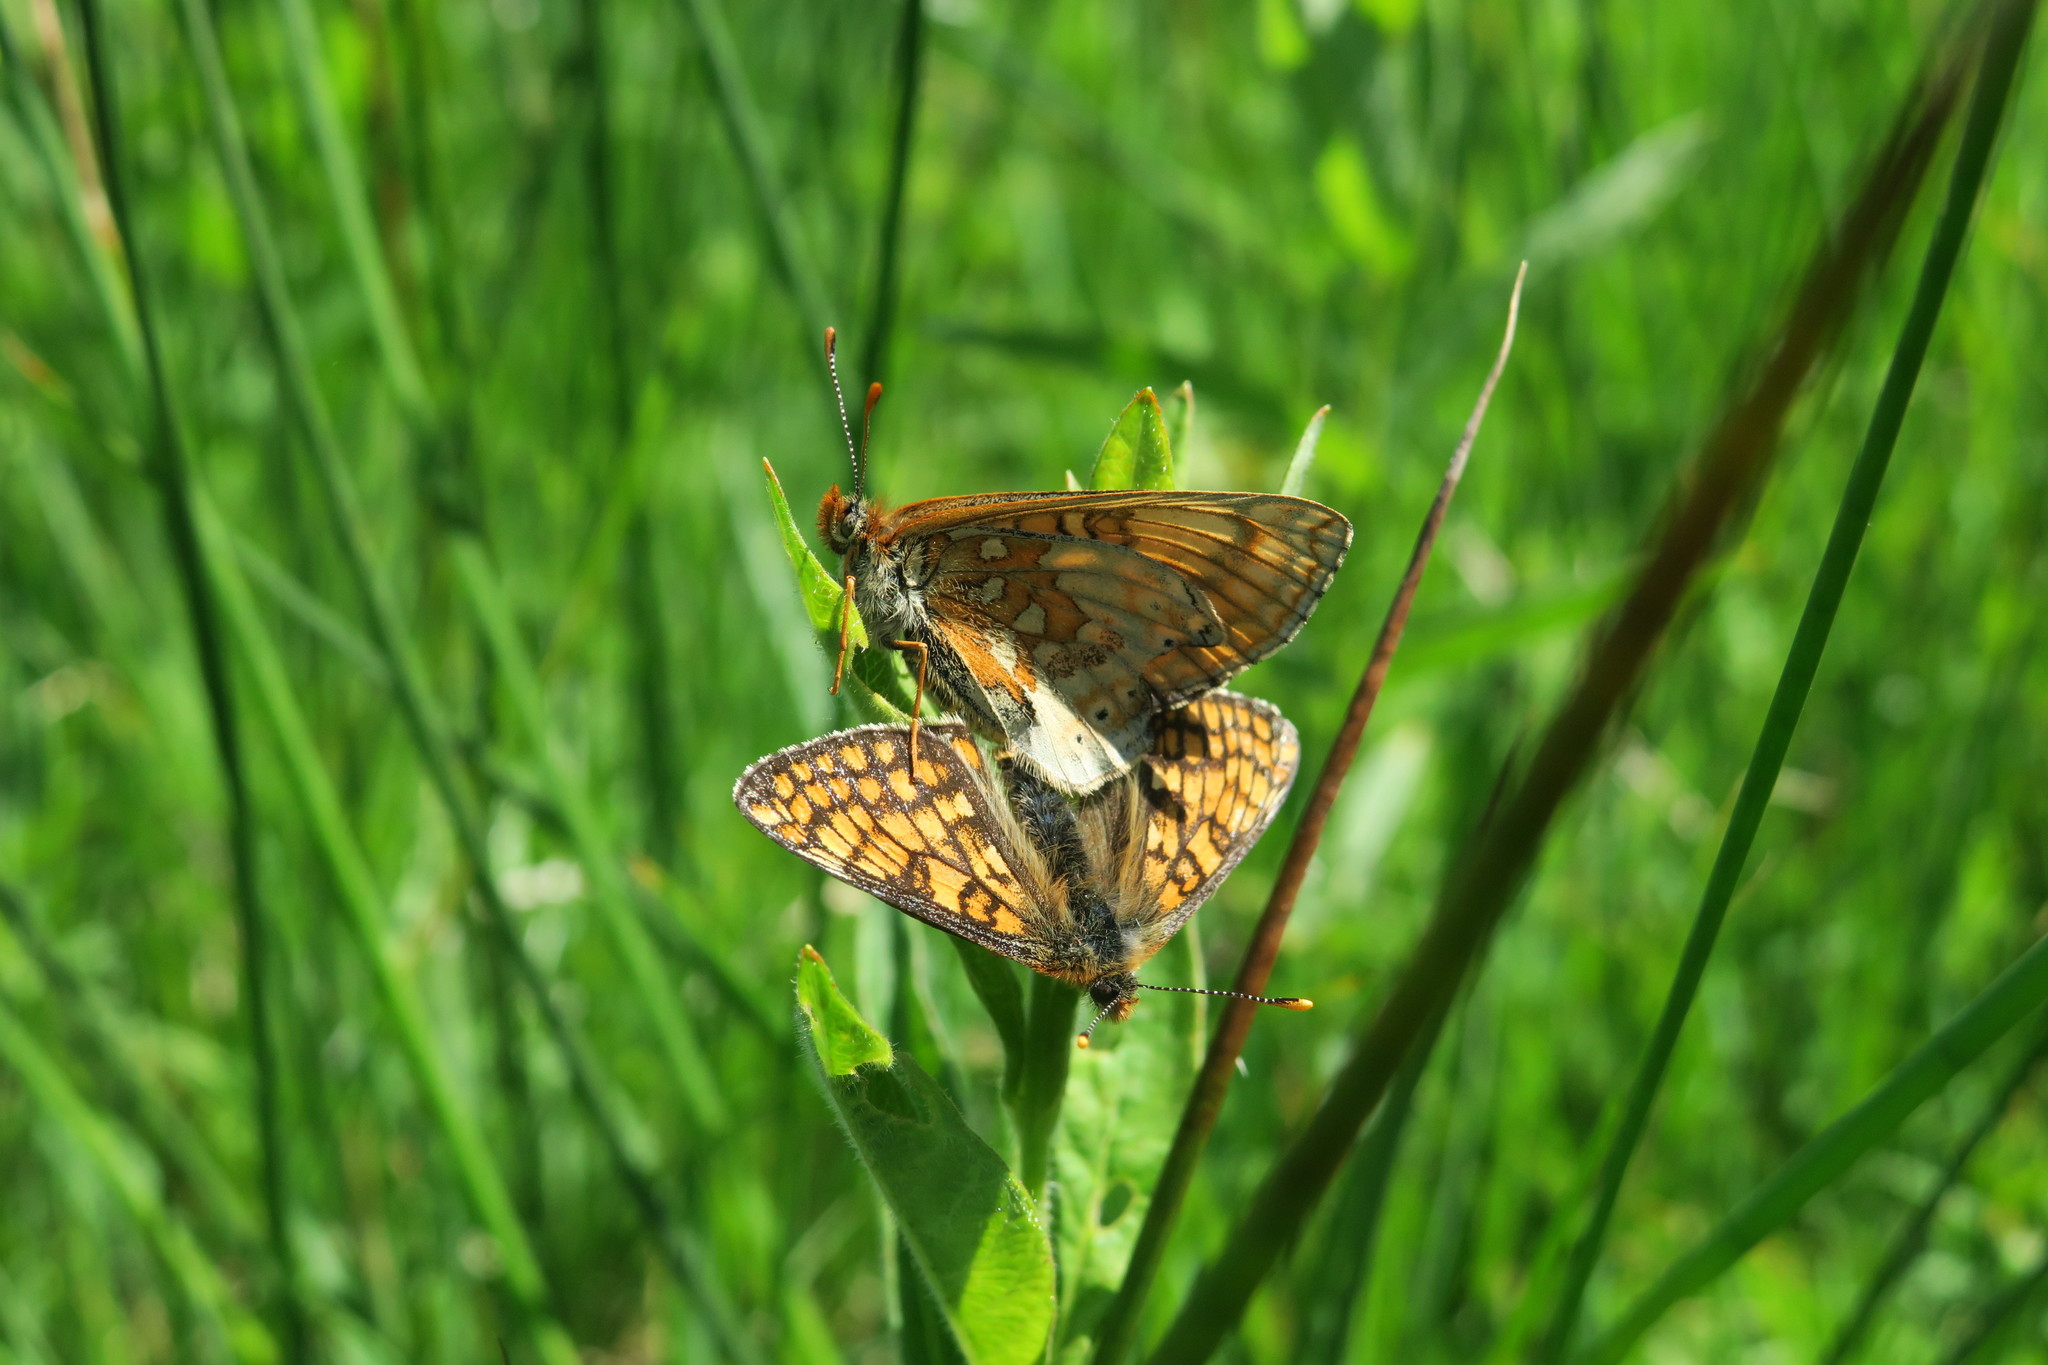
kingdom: Animalia
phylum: Arthropoda
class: Insecta
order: Lepidoptera
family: Nymphalidae
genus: Euphydryas
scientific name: Euphydryas aurinia
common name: Marsh fritillary
